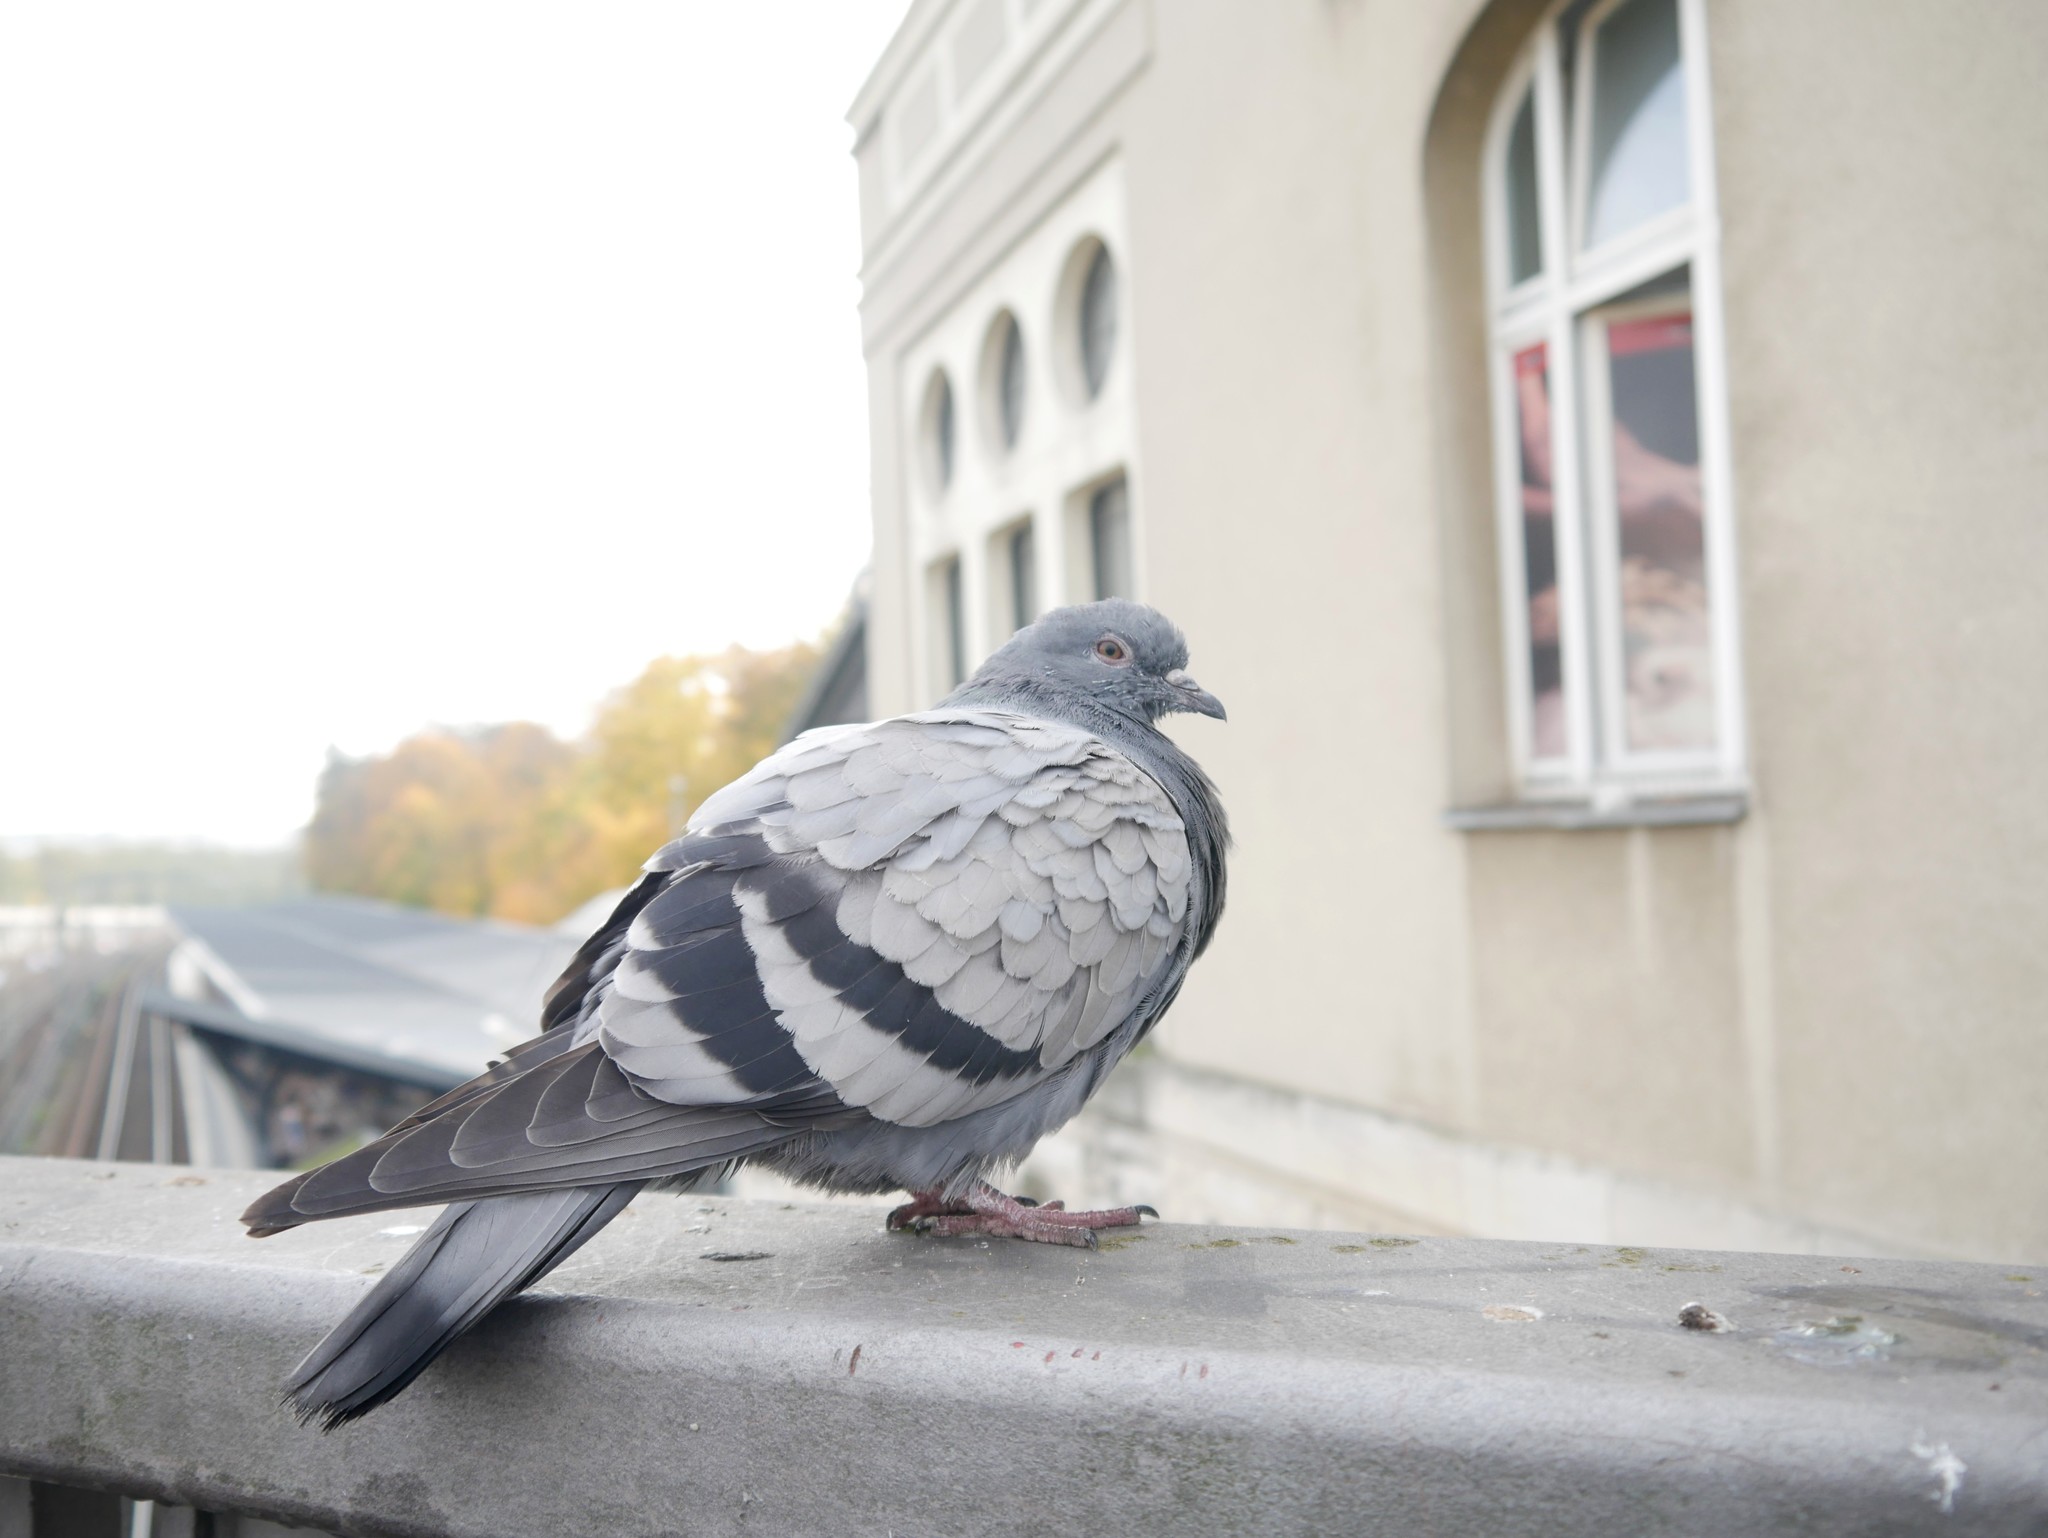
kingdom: Animalia
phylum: Chordata
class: Aves
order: Columbiformes
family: Columbidae
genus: Columba
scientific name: Columba livia
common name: Rock pigeon
